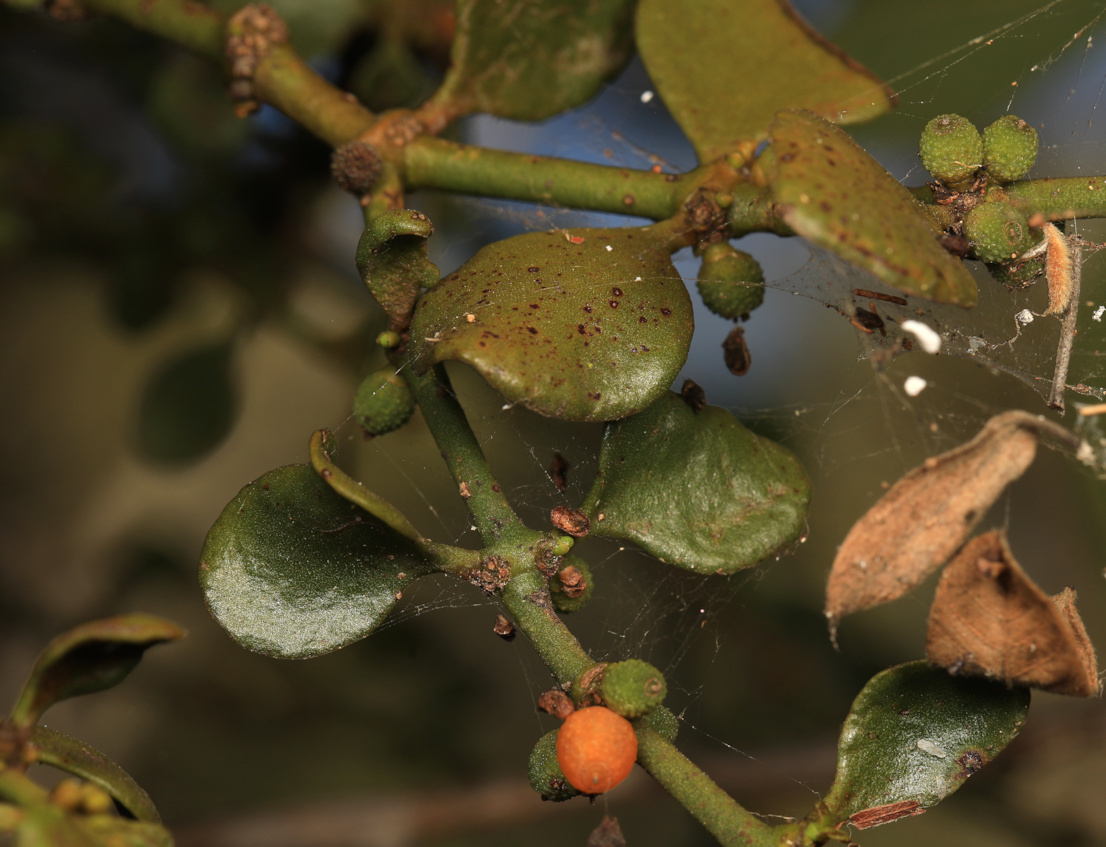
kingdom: Plantae
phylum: Tracheophyta
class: Magnoliopsida
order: Santalales
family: Viscaceae
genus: Viscum
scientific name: Viscum rotundifolium
